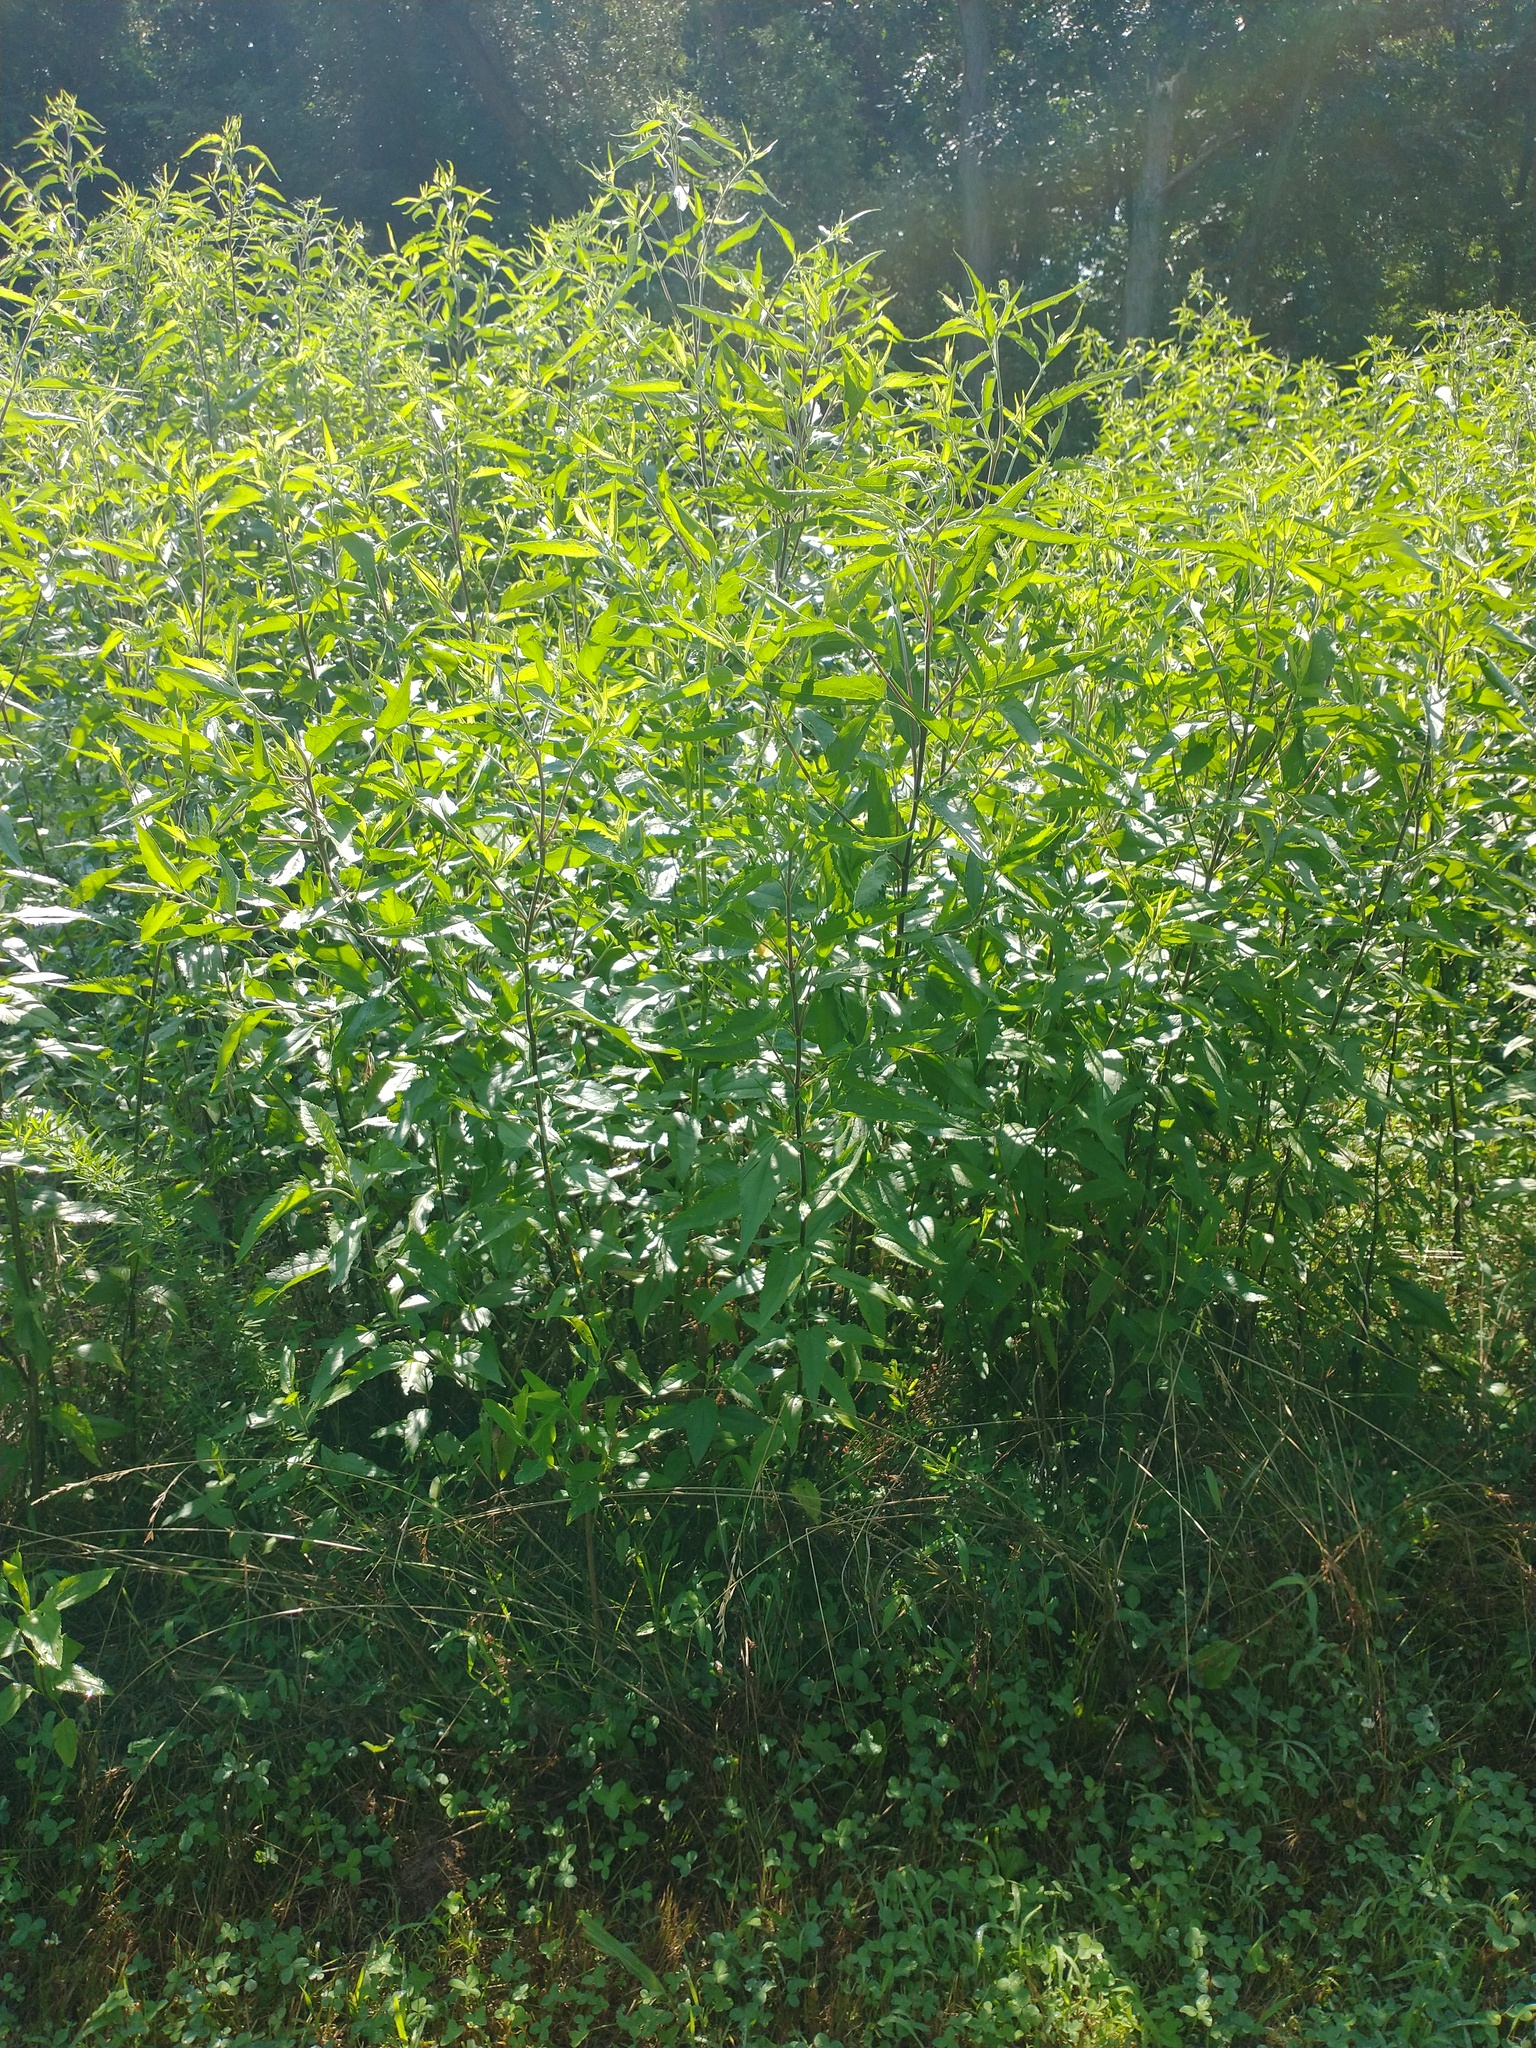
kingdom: Plantae
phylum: Tracheophyta
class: Magnoliopsida
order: Asterales
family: Asteraceae
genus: Eupatorium
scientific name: Eupatorium serotinum
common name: Late boneset
